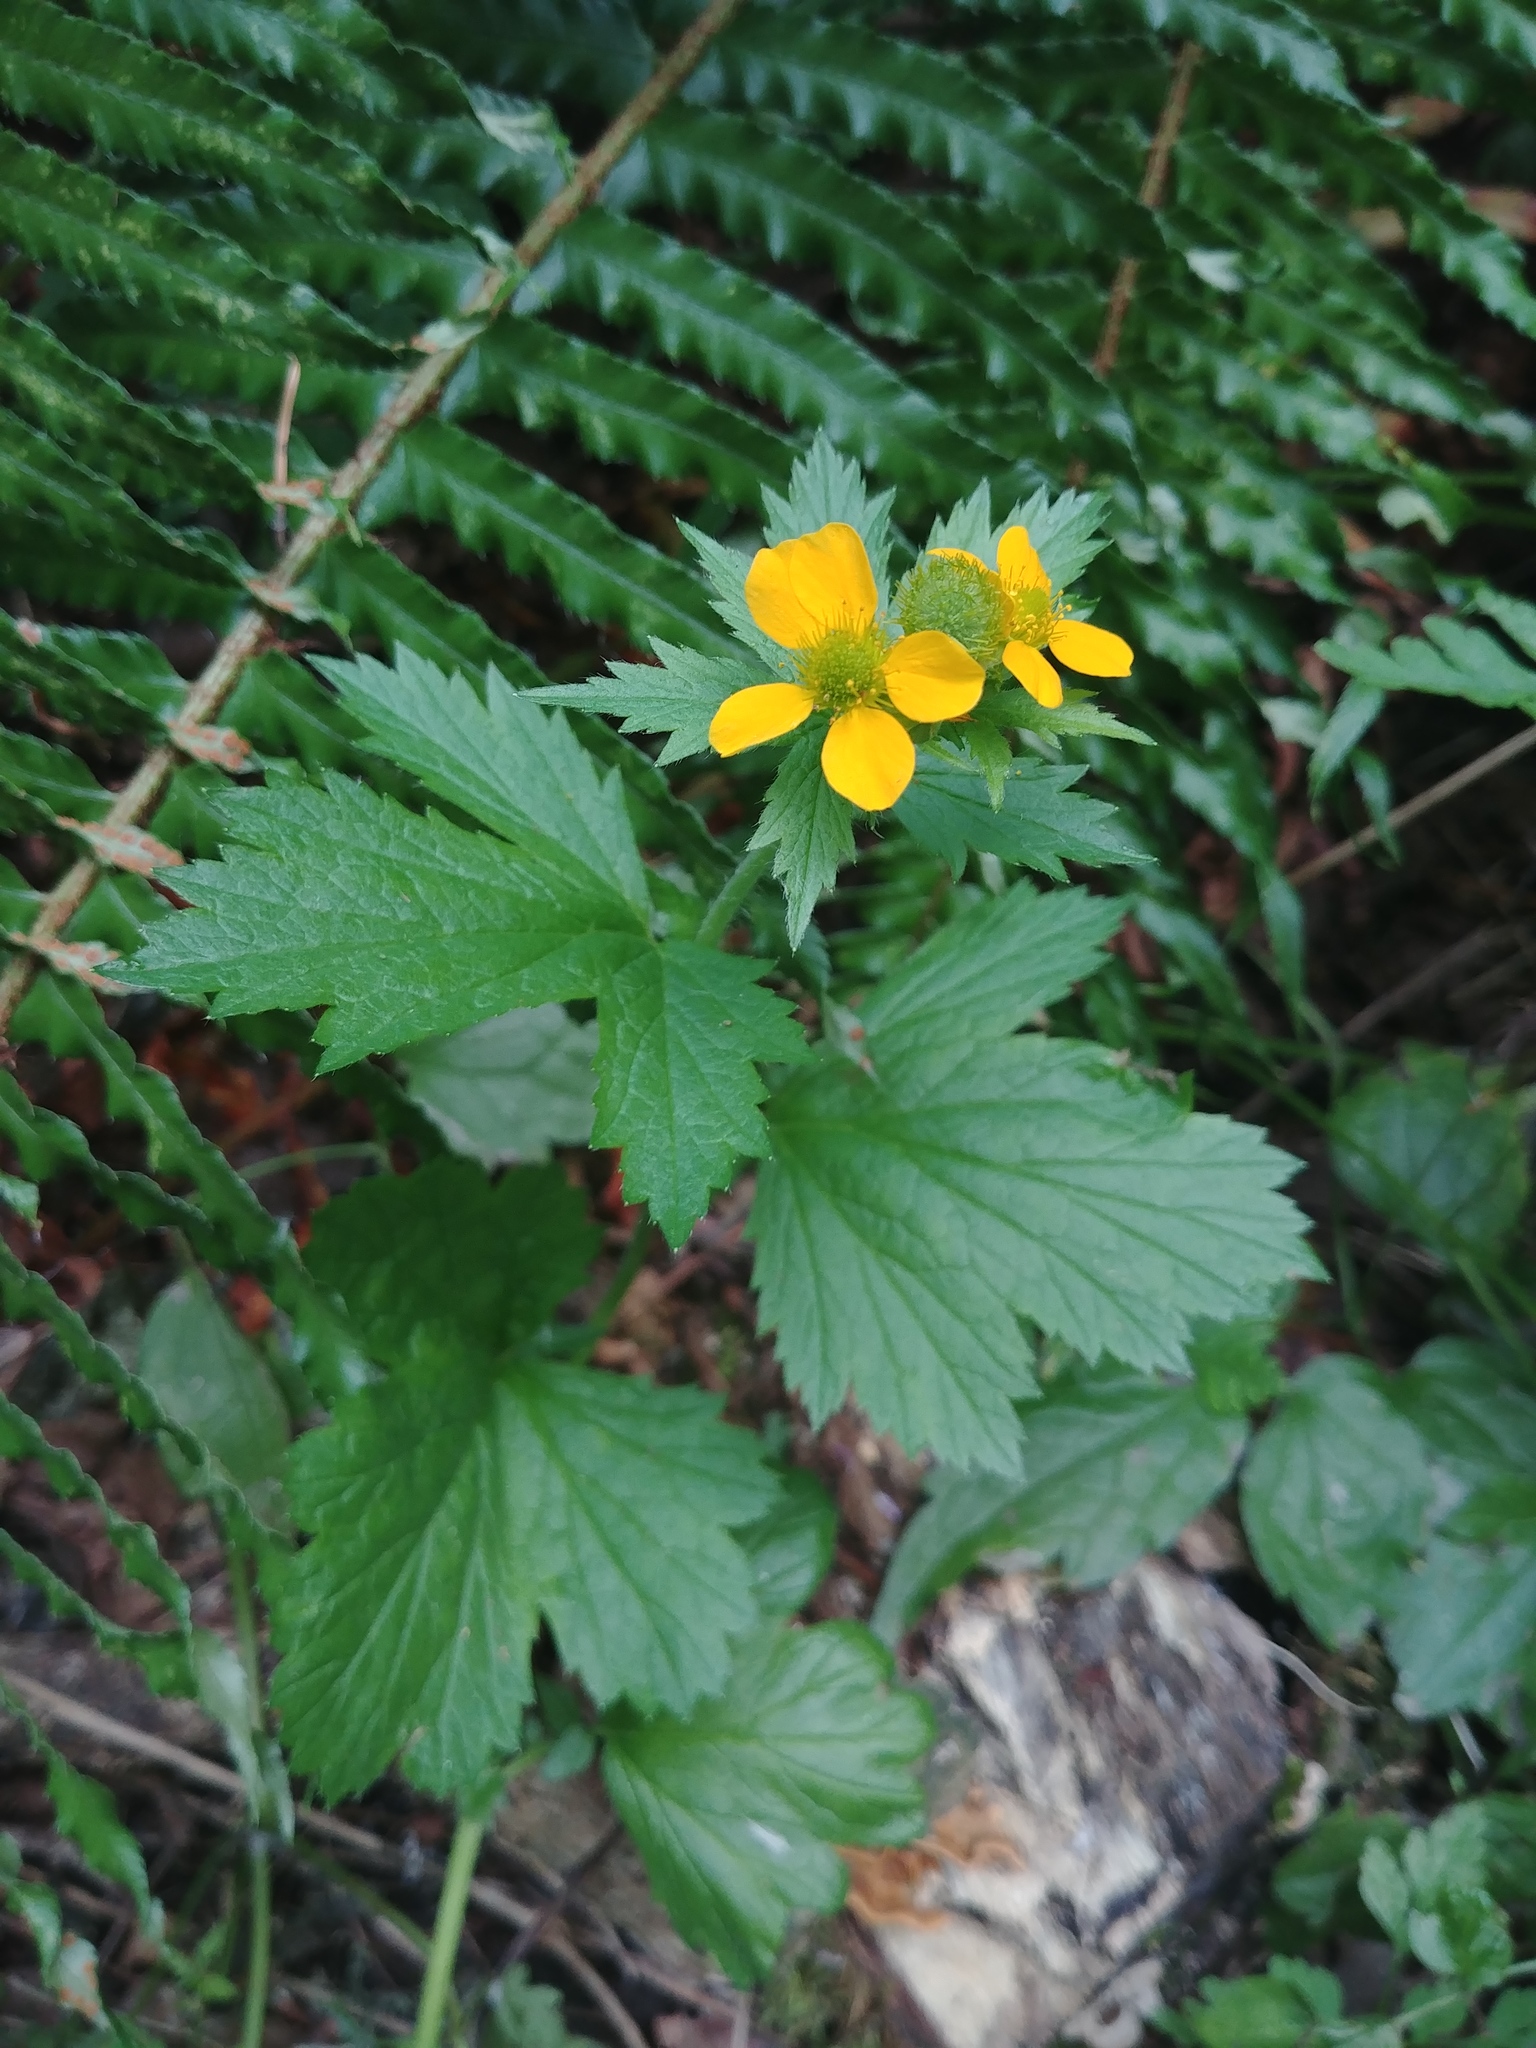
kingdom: Plantae
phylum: Tracheophyta
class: Magnoliopsida
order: Rosales
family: Rosaceae
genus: Geum
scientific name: Geum macrophyllum
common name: Large-leaved avens
